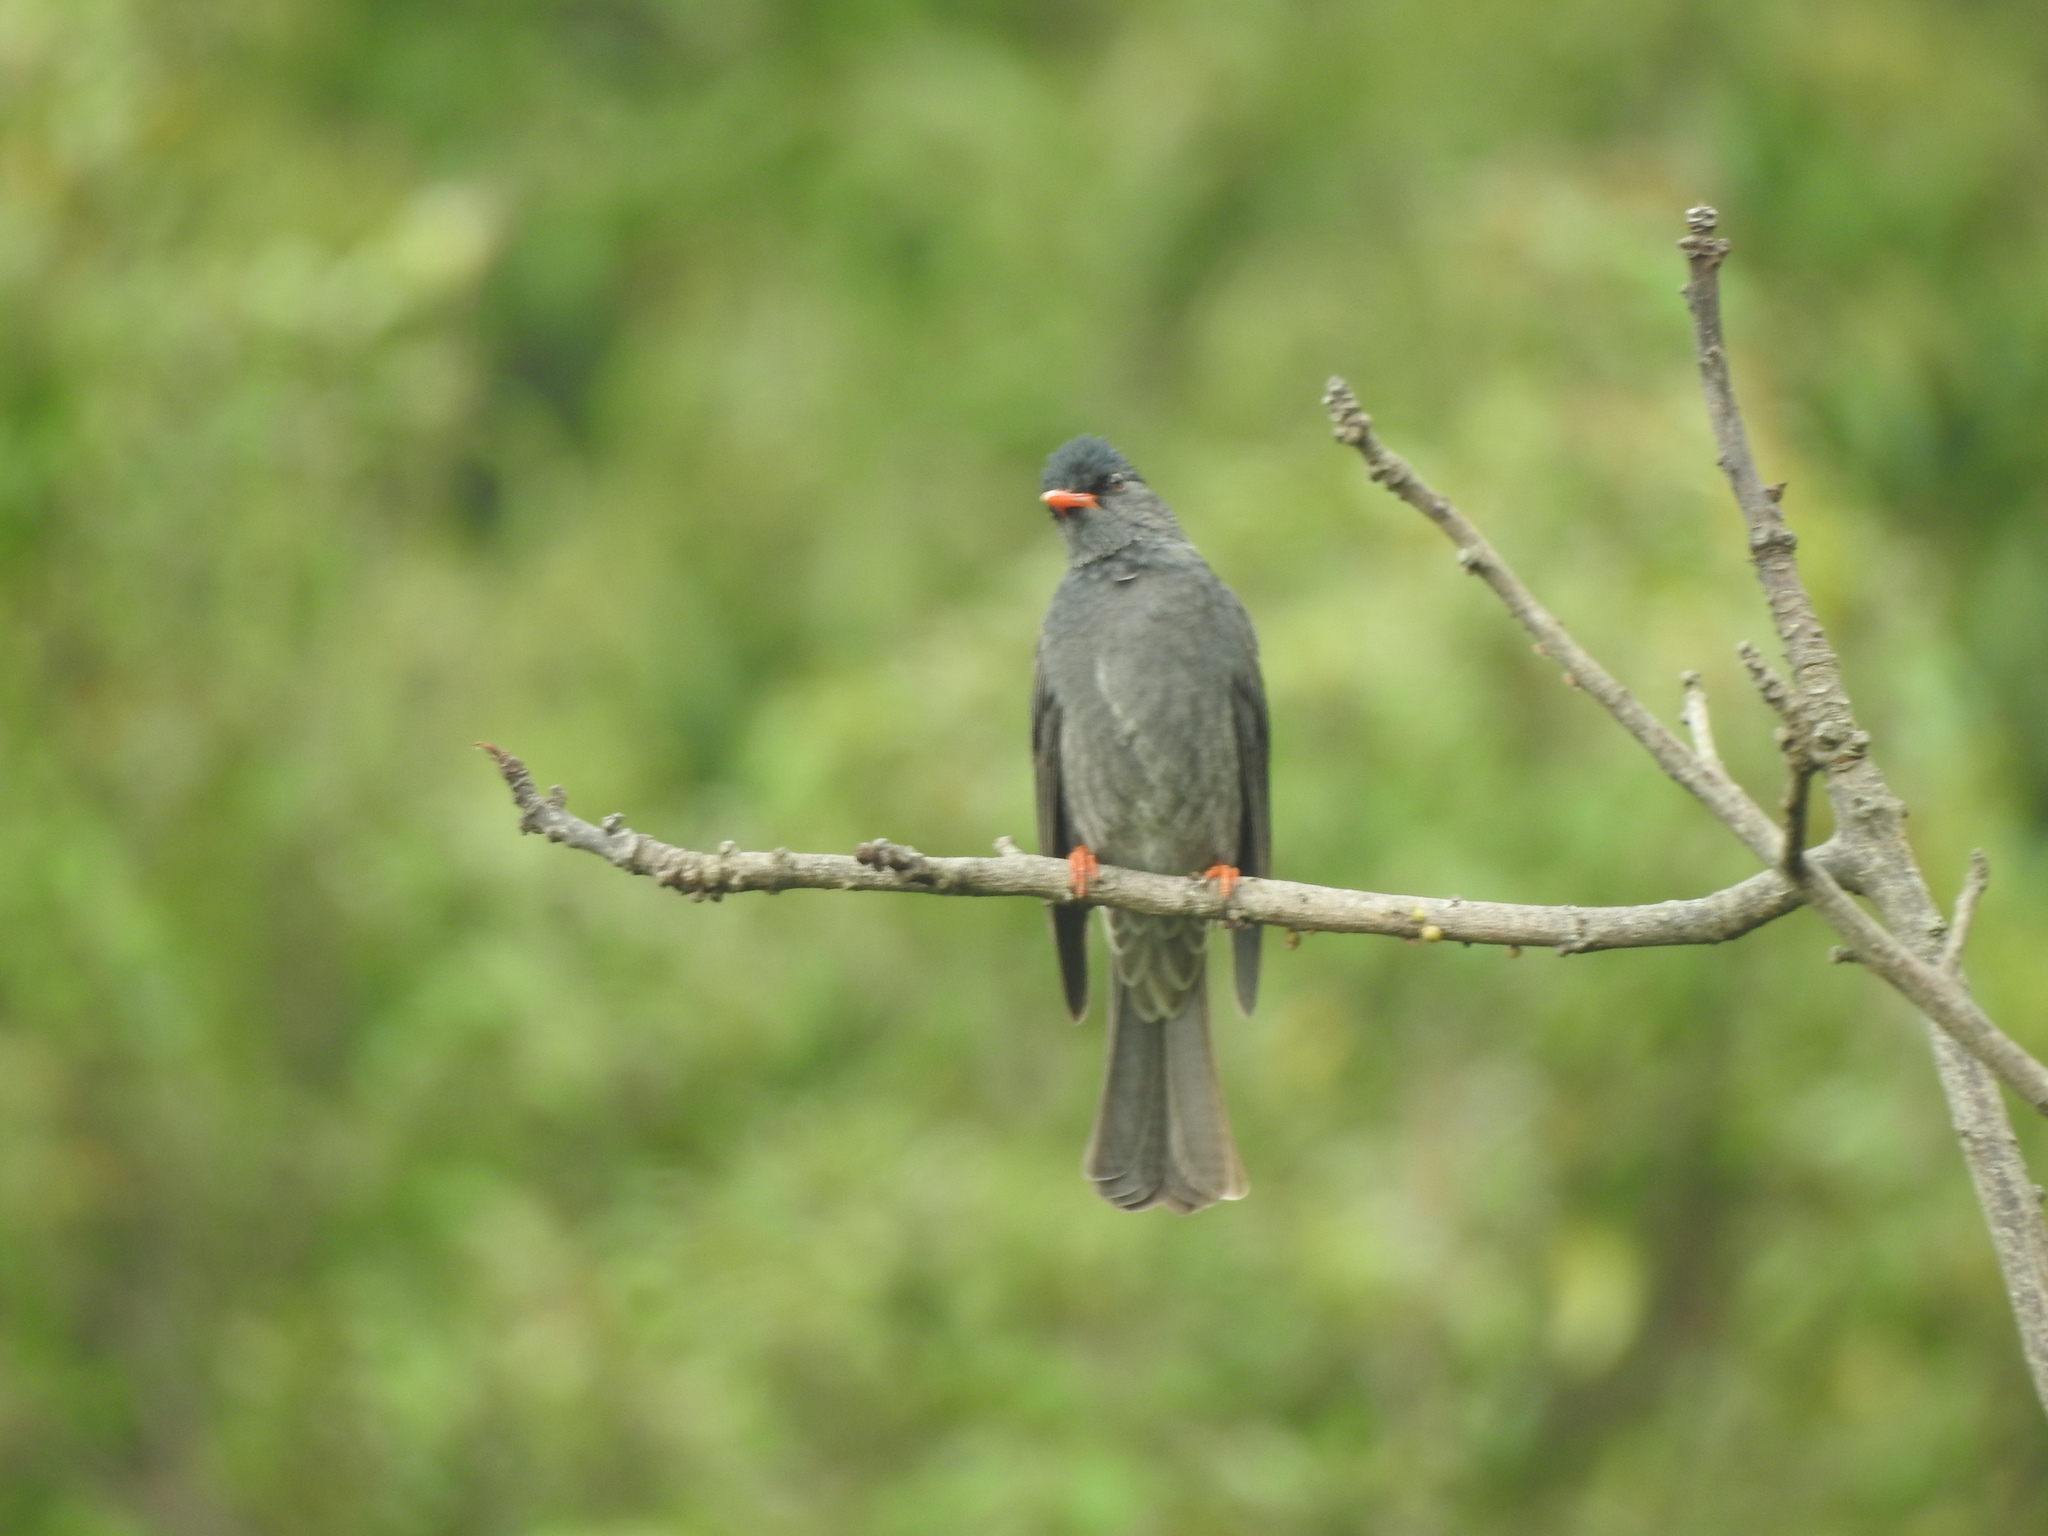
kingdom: Animalia
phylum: Chordata
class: Aves
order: Passeriformes
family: Pycnonotidae
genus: Hypsipetes
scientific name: Hypsipetes ganeesa
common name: Square-tailed bulbul
